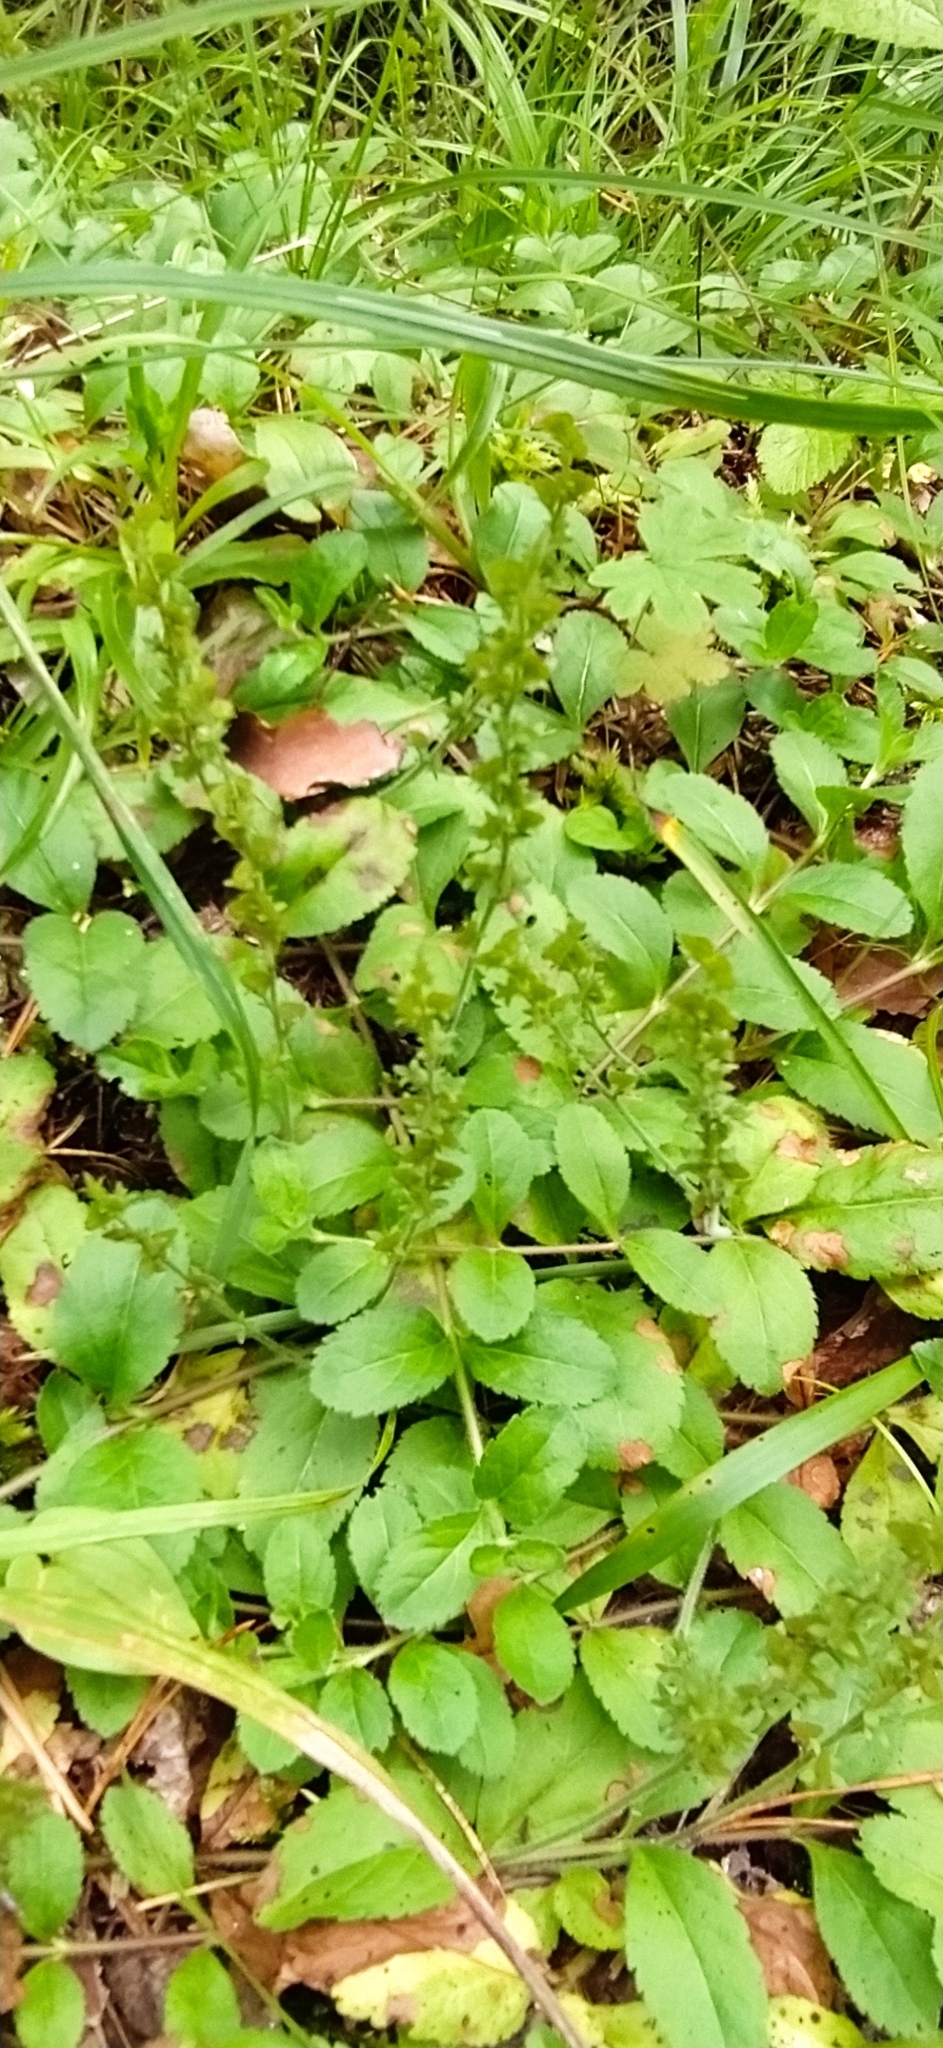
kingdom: Plantae
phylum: Tracheophyta
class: Magnoliopsida
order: Lamiales
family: Plantaginaceae
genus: Veronica
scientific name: Veronica officinalis
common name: Common speedwell
